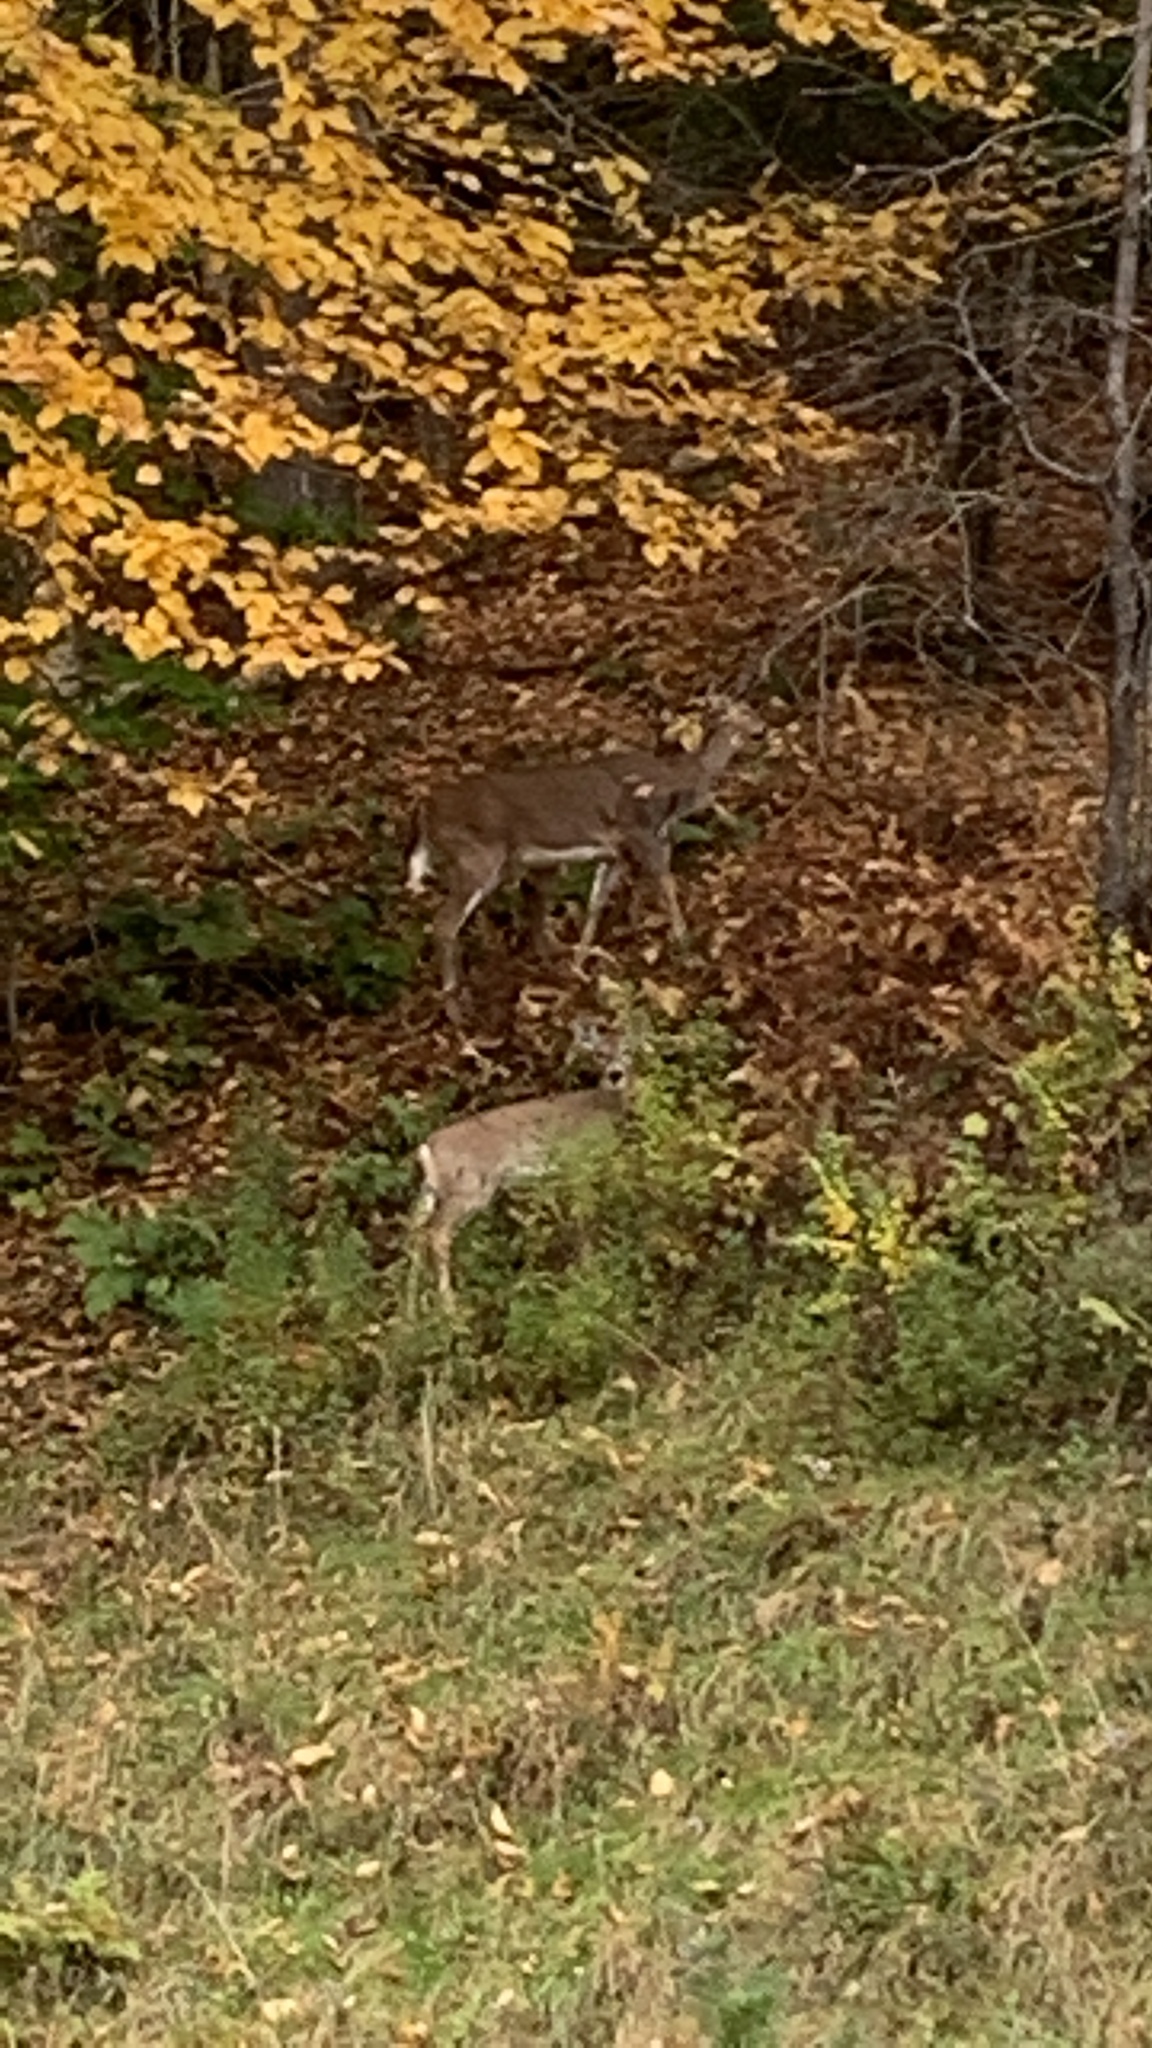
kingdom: Animalia
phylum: Chordata
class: Mammalia
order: Artiodactyla
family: Cervidae
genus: Odocoileus
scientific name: Odocoileus virginianus
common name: White-tailed deer
